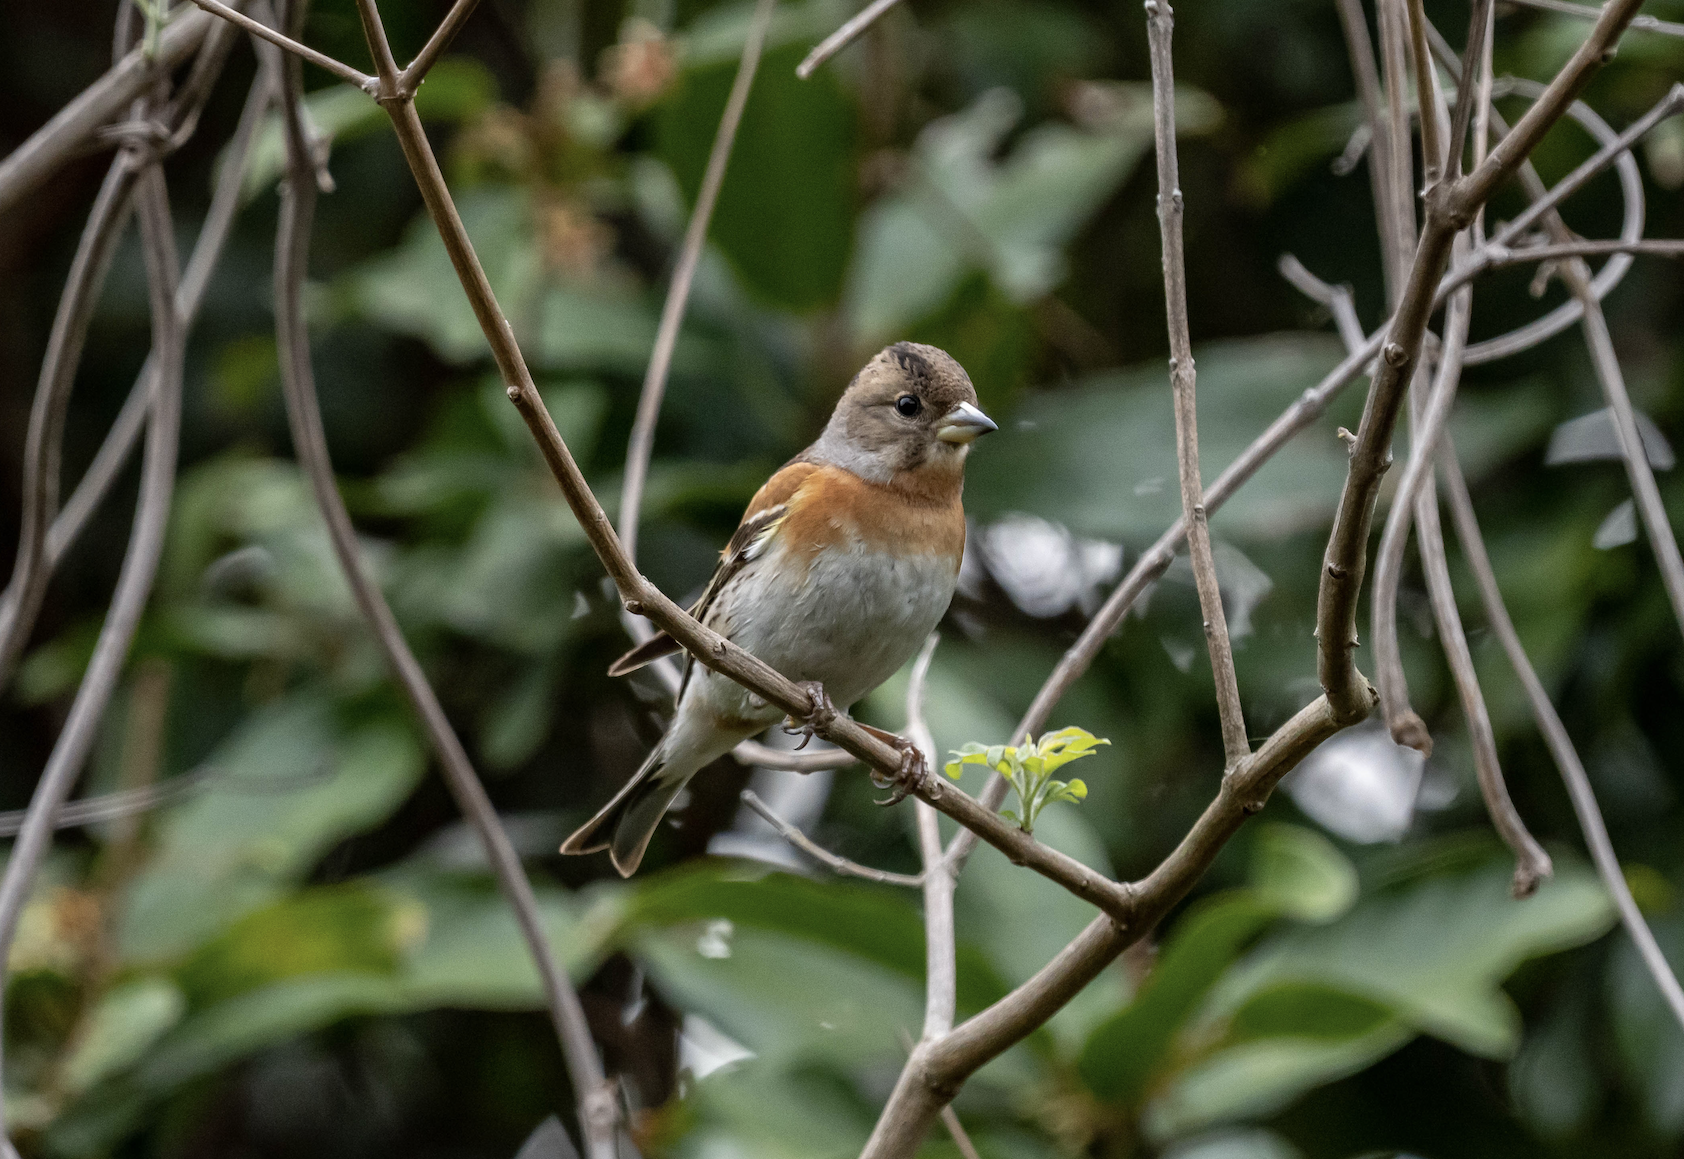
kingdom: Animalia
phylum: Chordata
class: Aves
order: Passeriformes
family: Fringillidae
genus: Fringilla
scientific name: Fringilla montifringilla
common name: Brambling
